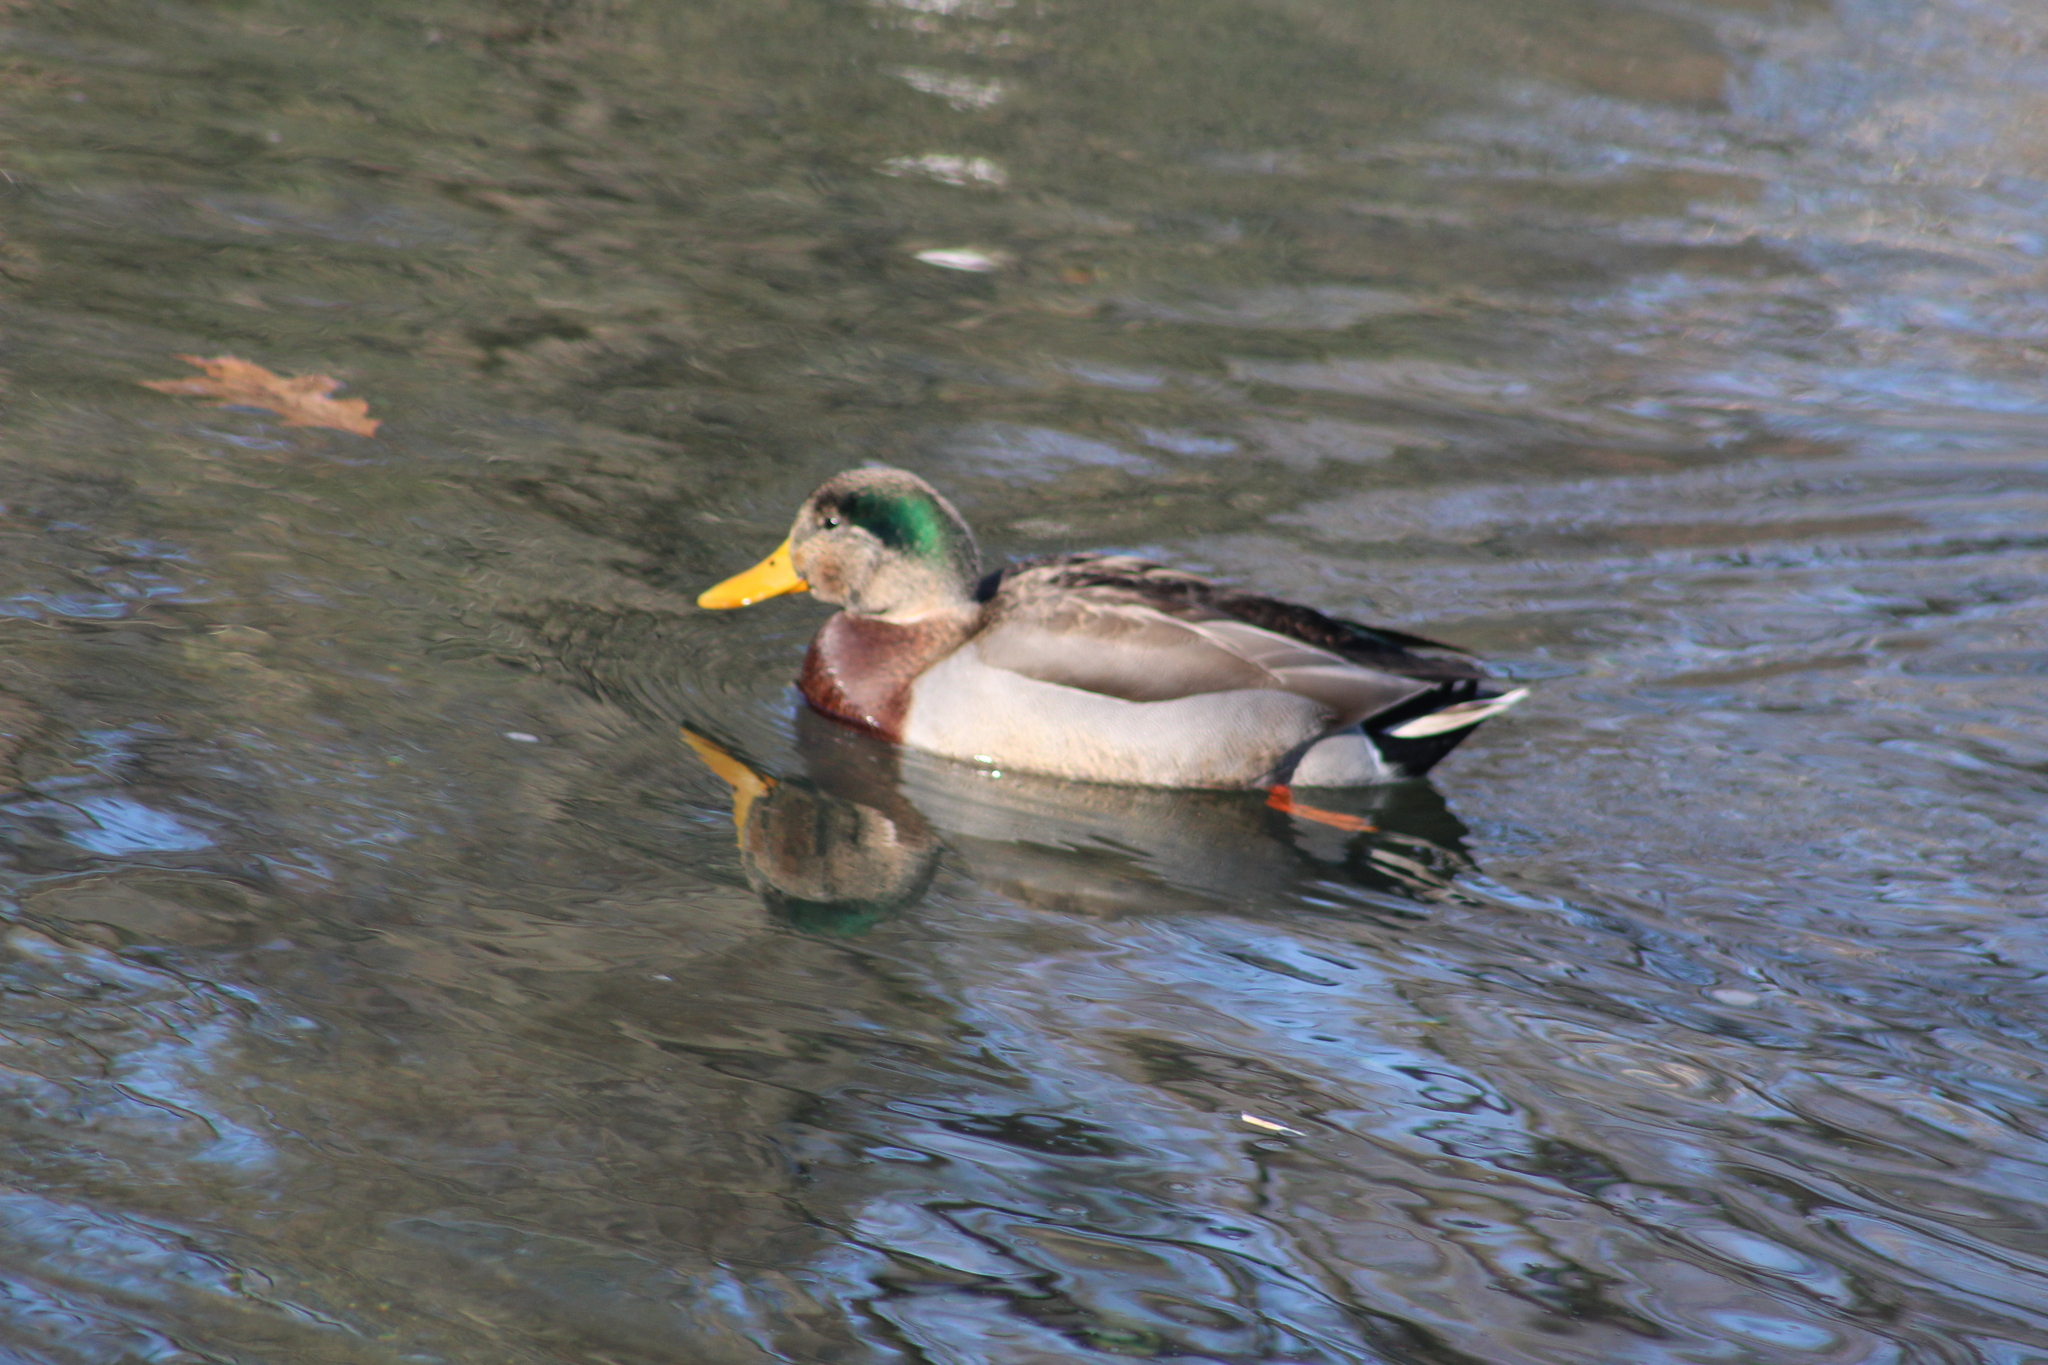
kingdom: Animalia
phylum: Chordata
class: Aves
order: Anseriformes
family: Anatidae
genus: Anas
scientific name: Anas platyrhynchos
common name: Mallard
